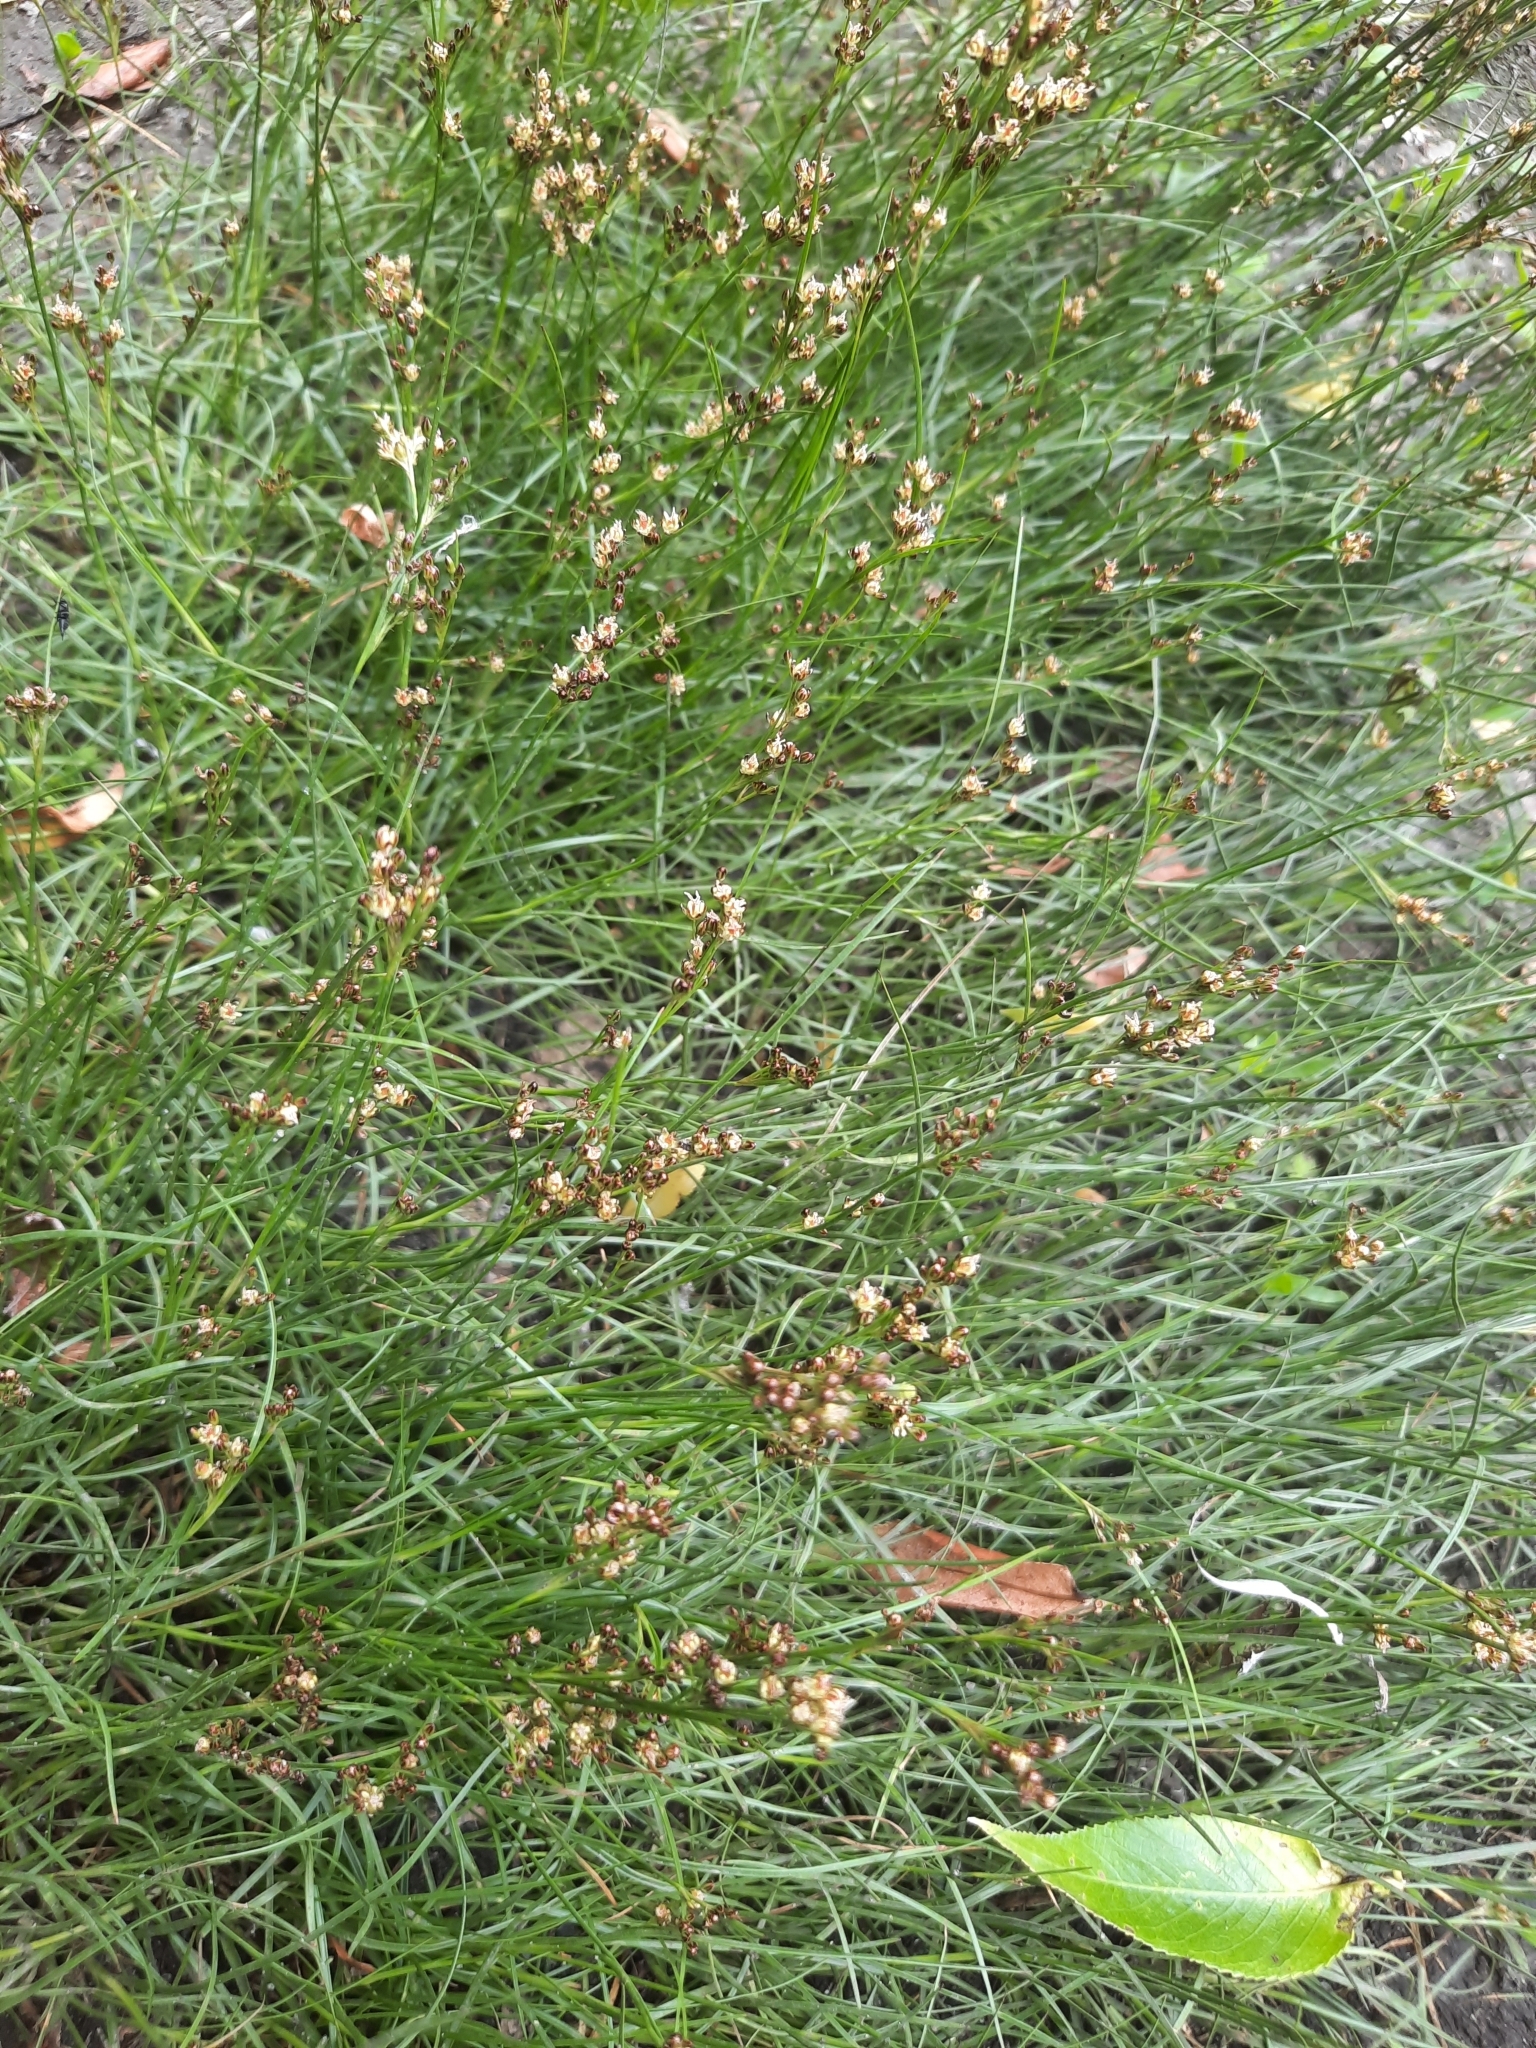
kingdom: Plantae
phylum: Tracheophyta
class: Liliopsida
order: Poales
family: Juncaceae
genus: Juncus
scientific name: Juncus compressus
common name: Round-fruited rush
